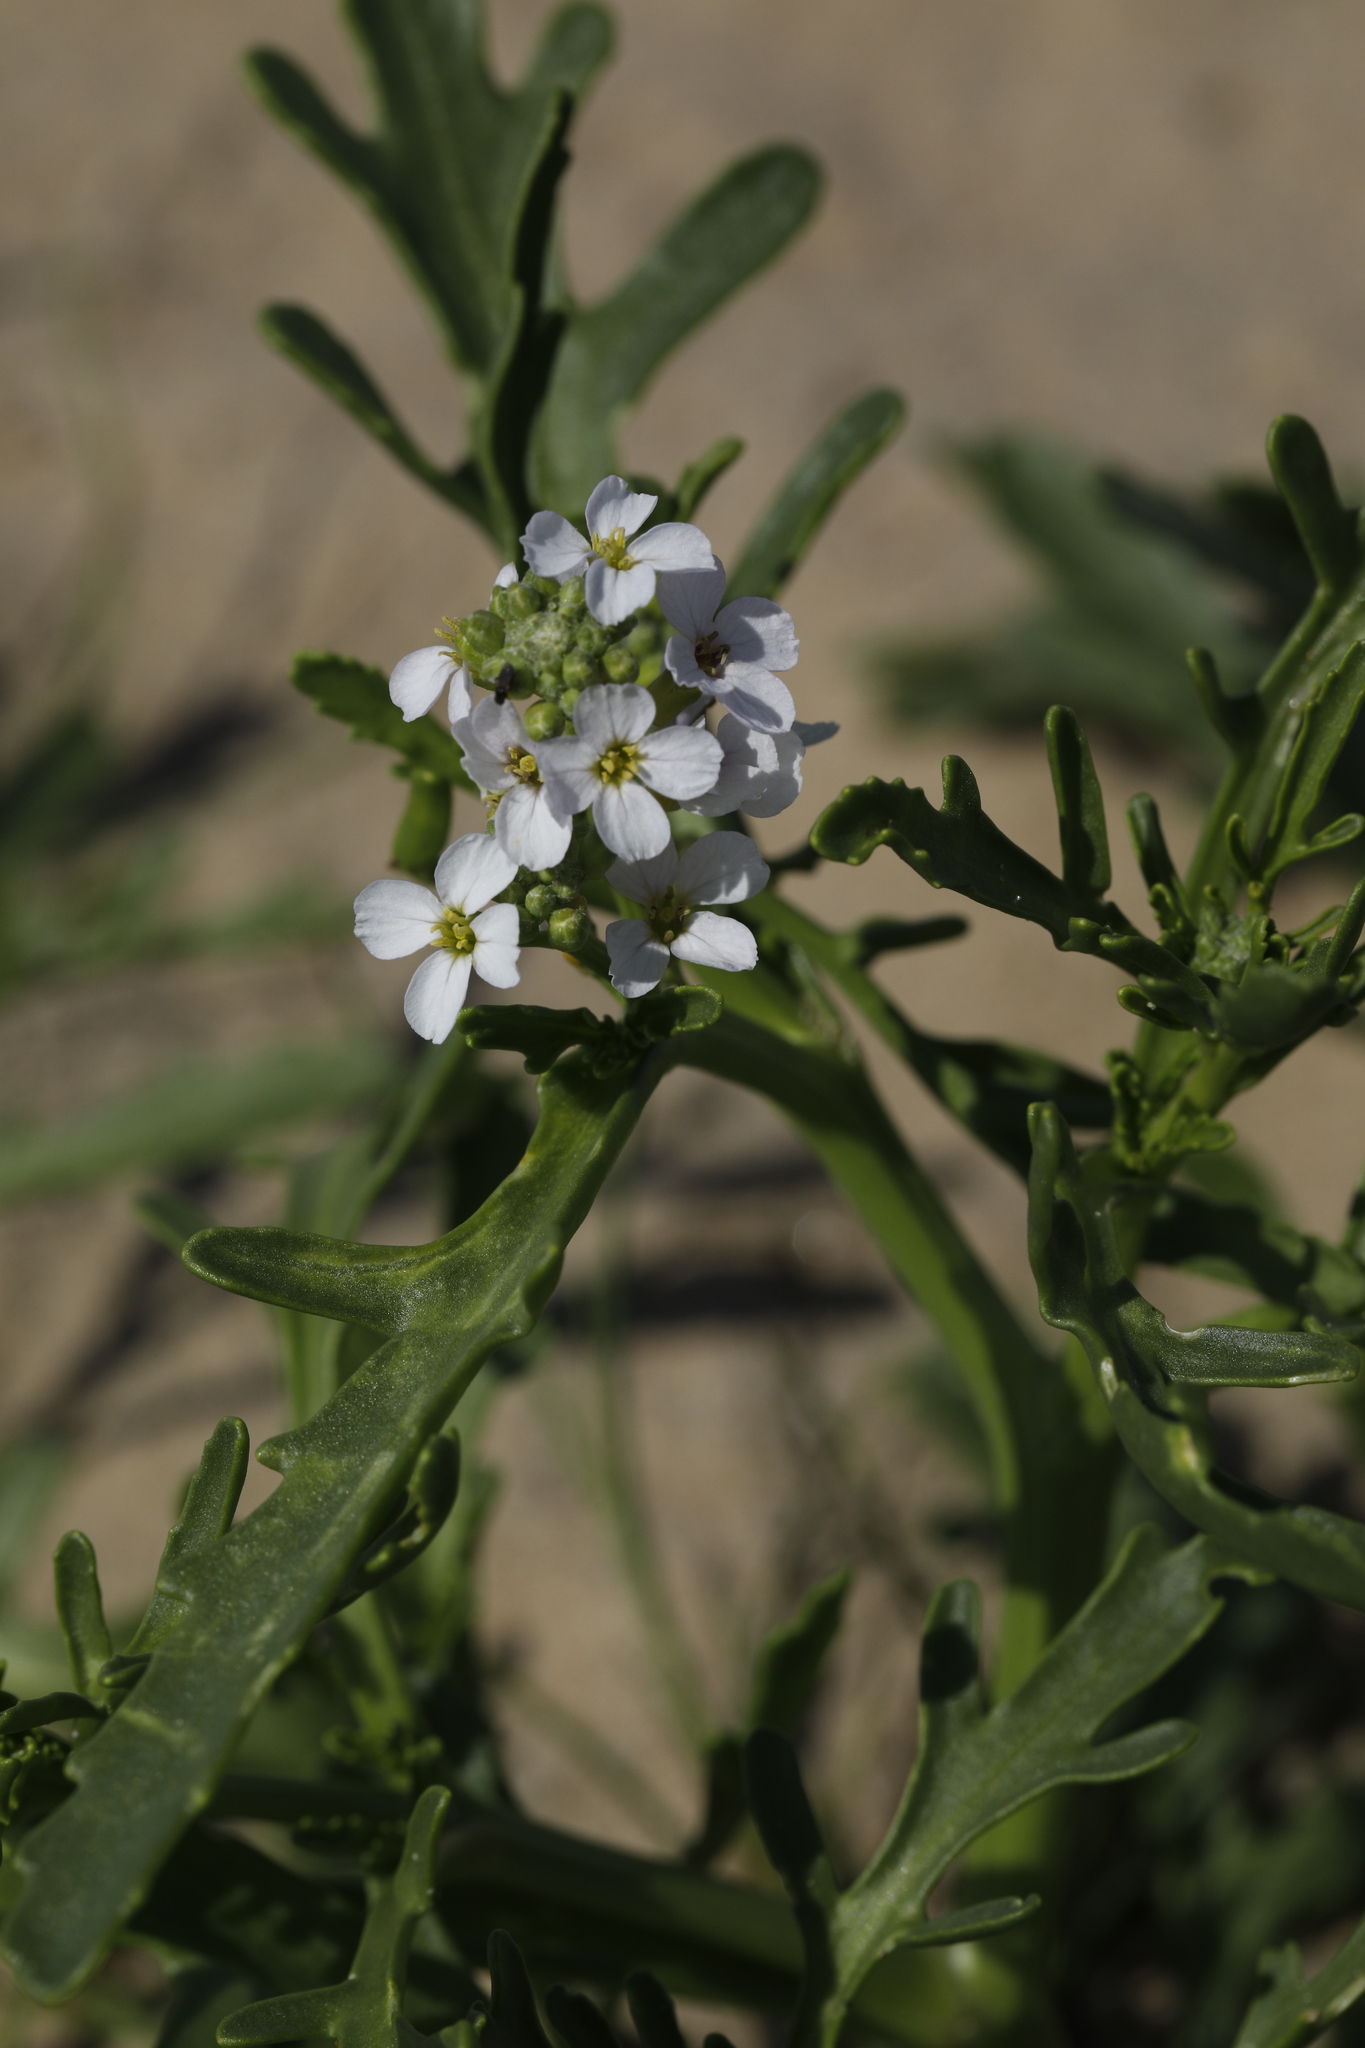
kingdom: Plantae
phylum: Tracheophyta
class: Magnoliopsida
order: Brassicales
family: Brassicaceae
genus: Cakile
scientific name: Cakile maritima
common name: Sea rocket
